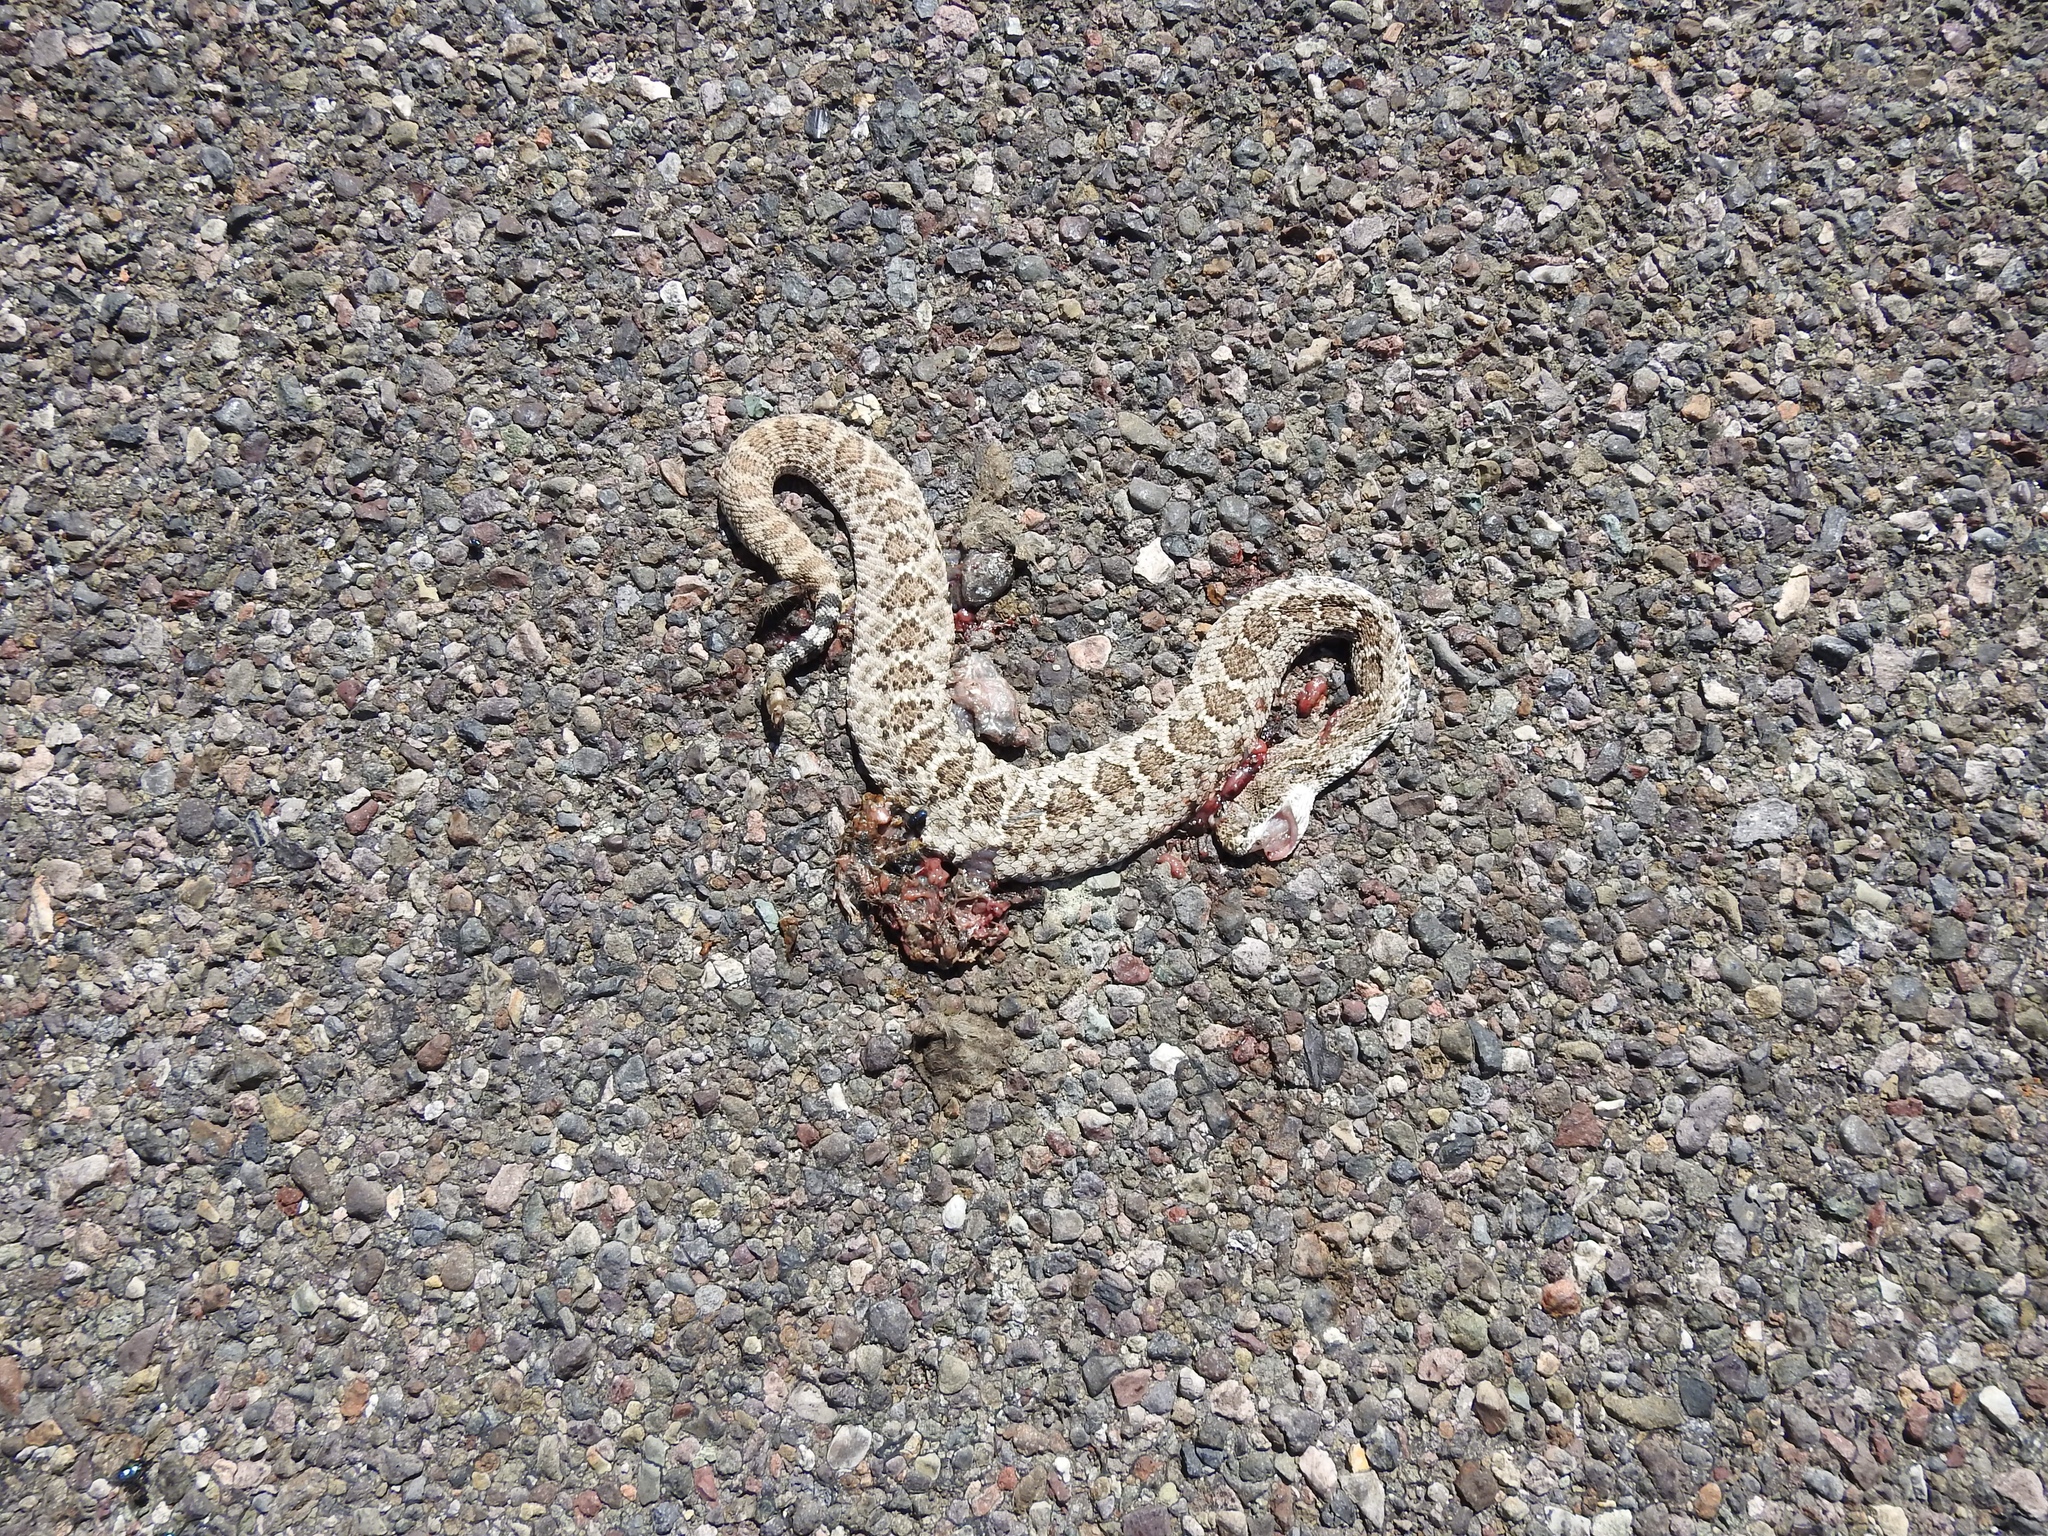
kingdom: Animalia
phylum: Chordata
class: Squamata
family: Viperidae
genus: Crotalus
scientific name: Crotalus atrox
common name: Western diamond-backed rattlesnake
